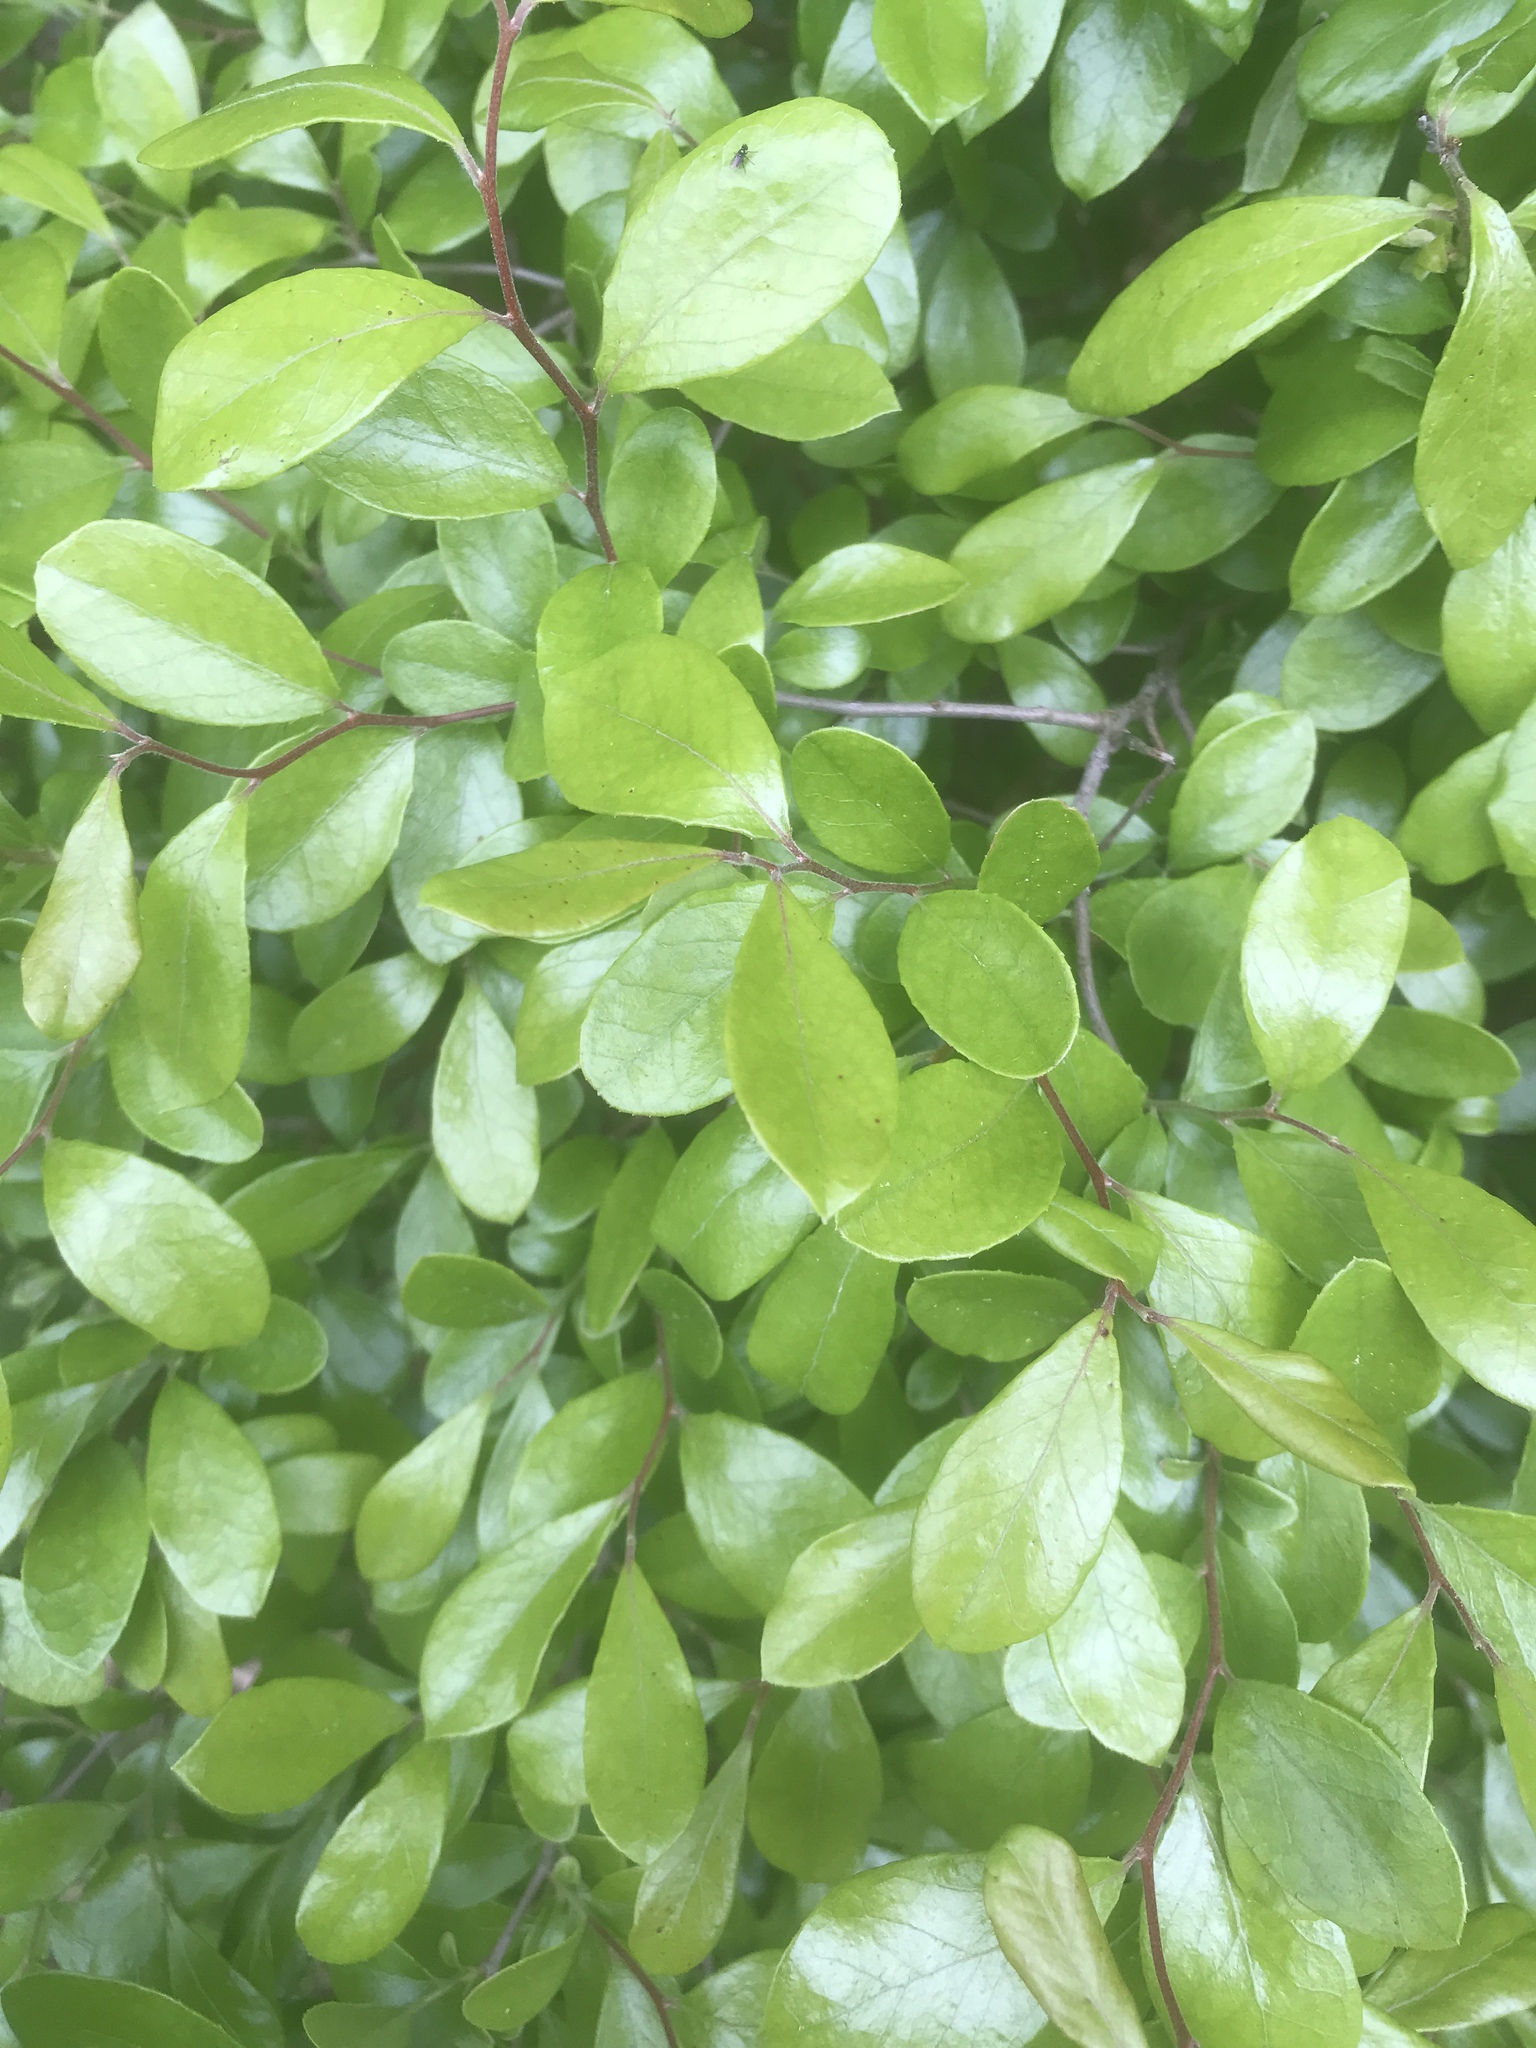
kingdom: Plantae
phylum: Tracheophyta
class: Magnoliopsida
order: Ericales
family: Ericaceae
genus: Vaccinium
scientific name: Vaccinium arboreum
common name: Farkleberry
